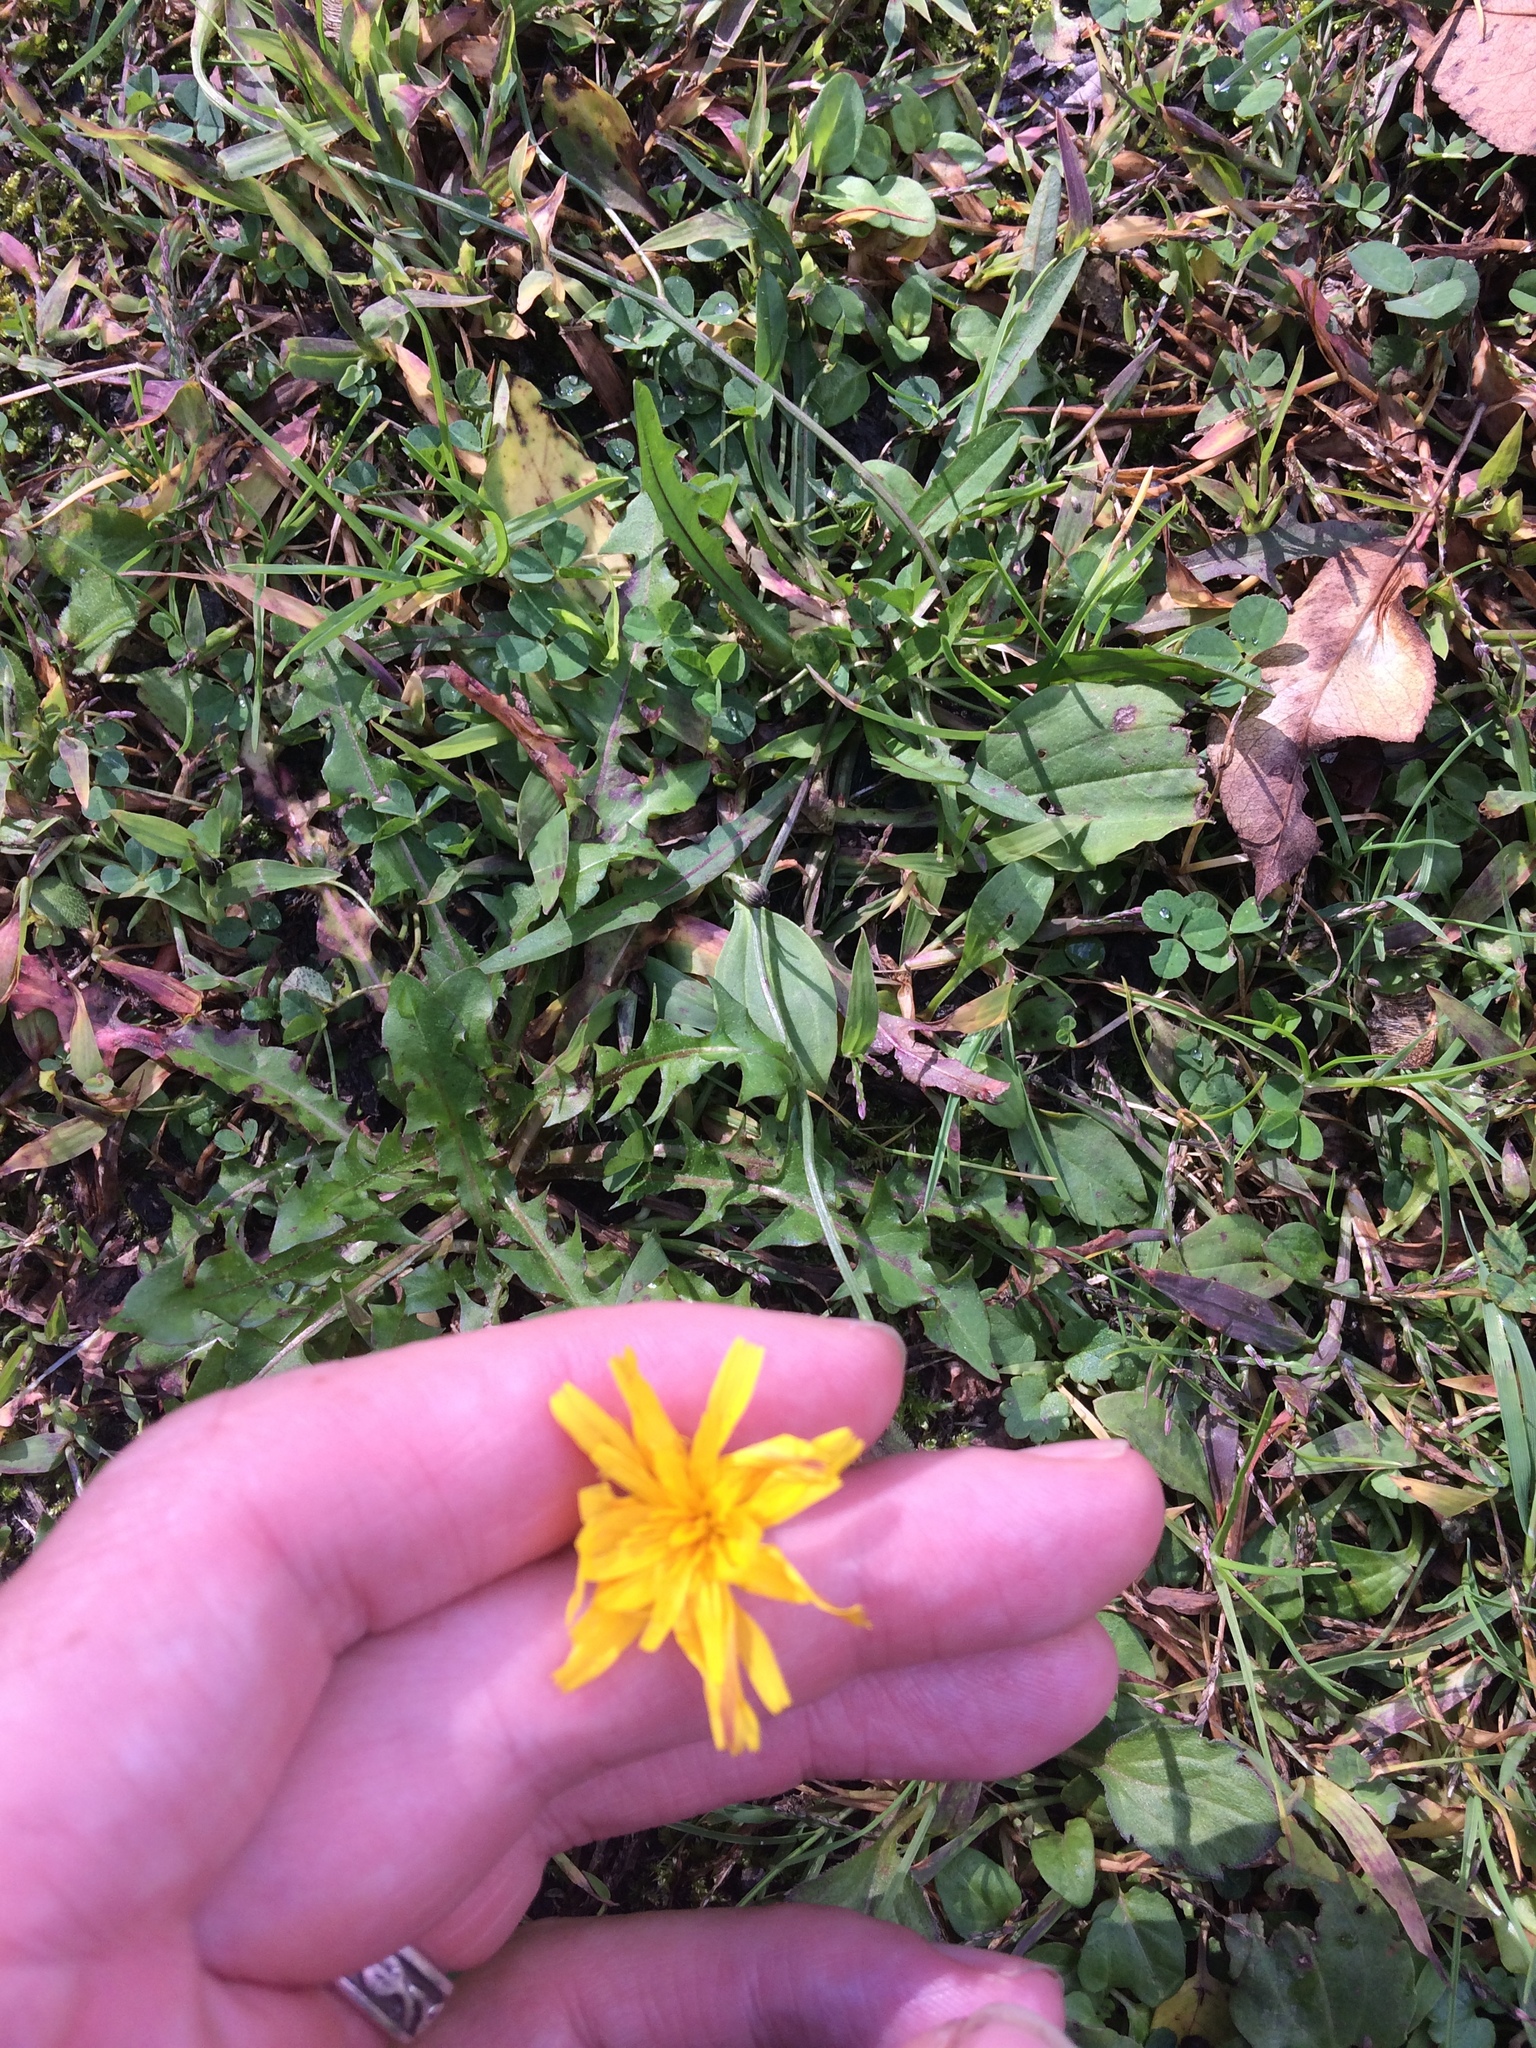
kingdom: Plantae
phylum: Tracheophyta
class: Magnoliopsida
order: Asterales
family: Asteraceae
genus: Scorzoneroides
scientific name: Scorzoneroides autumnalis
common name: Autumn hawkbit
